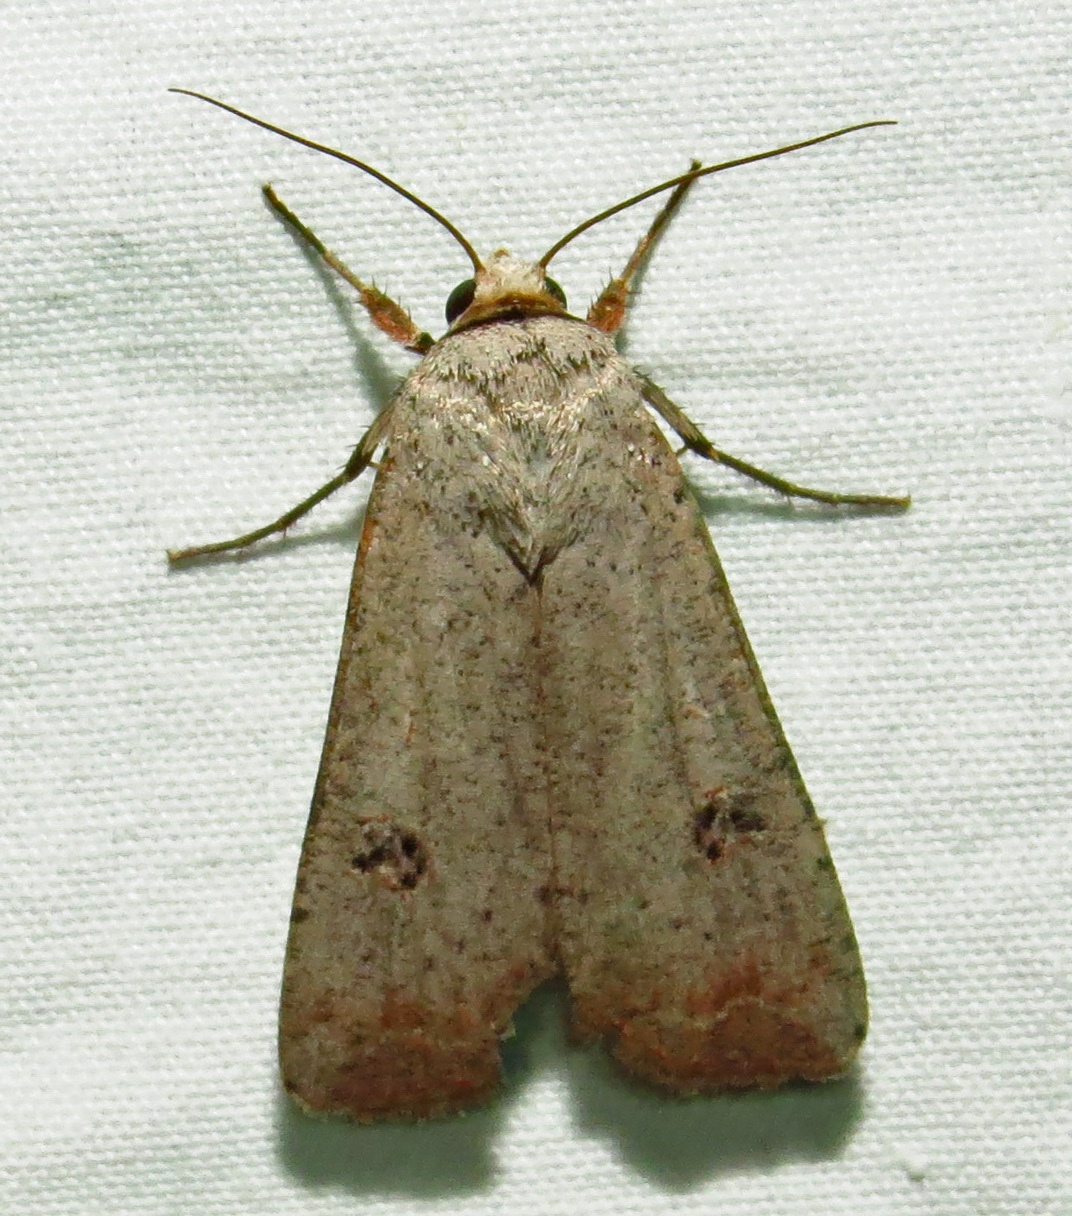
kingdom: Animalia
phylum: Arthropoda
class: Insecta
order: Lepidoptera
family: Noctuidae
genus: Anicla
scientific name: Anicla infecta
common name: Green cutworm
